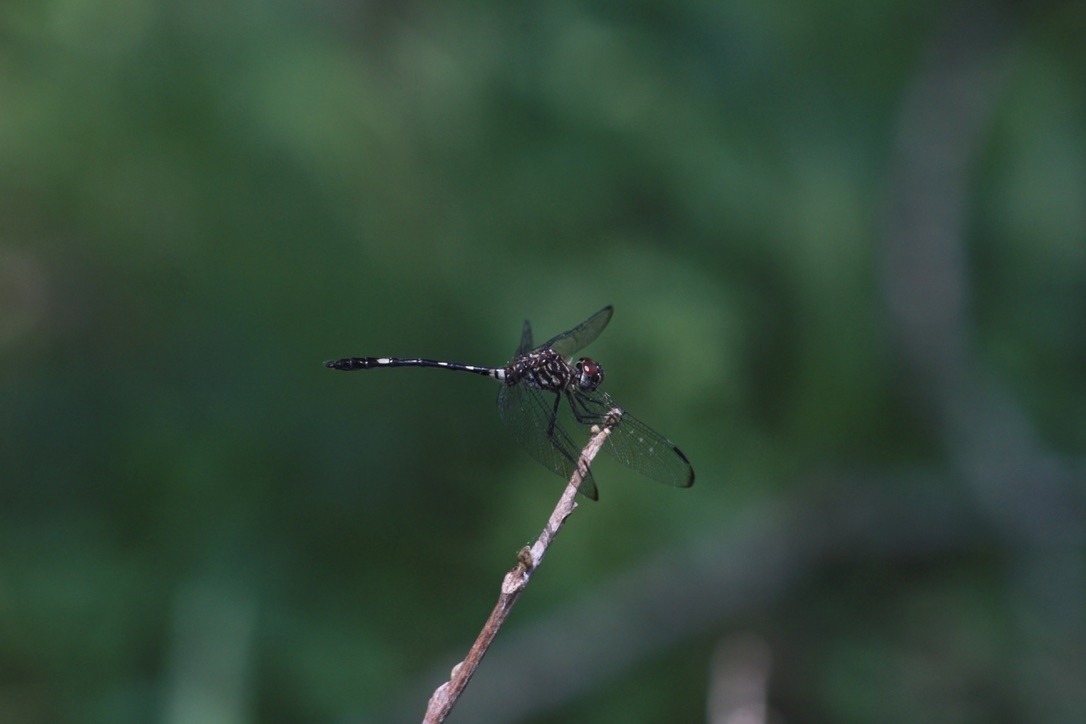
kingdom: Animalia
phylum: Arthropoda
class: Insecta
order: Odonata
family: Libellulidae
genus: Dythemis
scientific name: Dythemis velox
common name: Swift setwing
